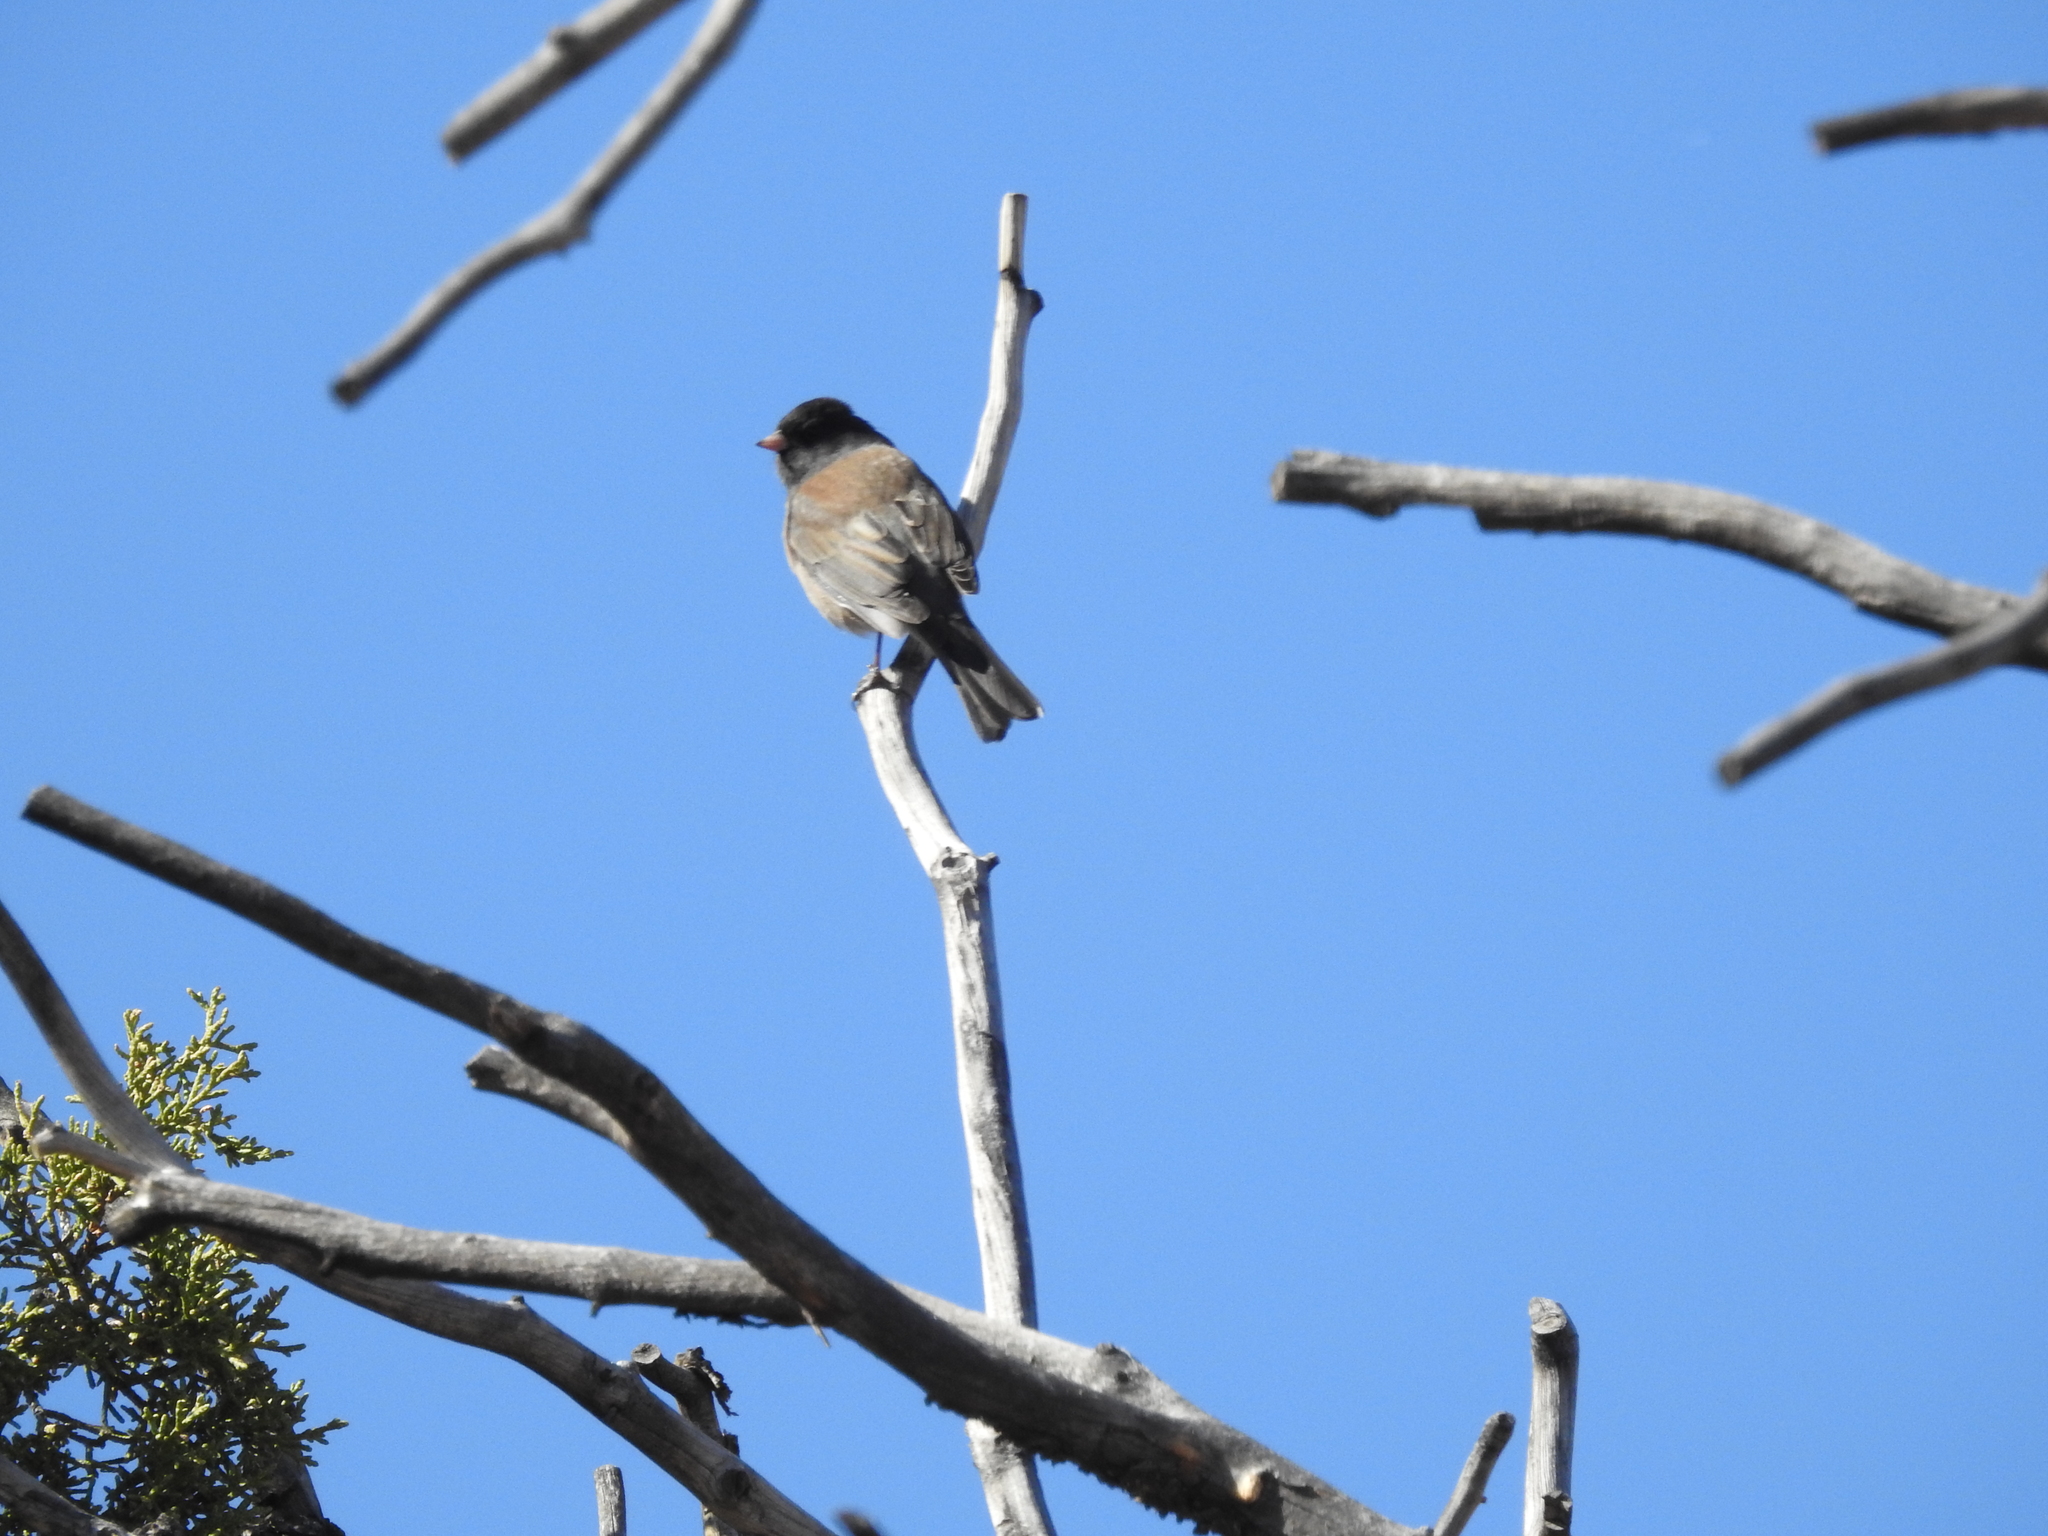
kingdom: Animalia
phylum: Chordata
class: Aves
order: Passeriformes
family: Passerellidae
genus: Junco
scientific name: Junco hyemalis
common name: Dark-eyed junco
